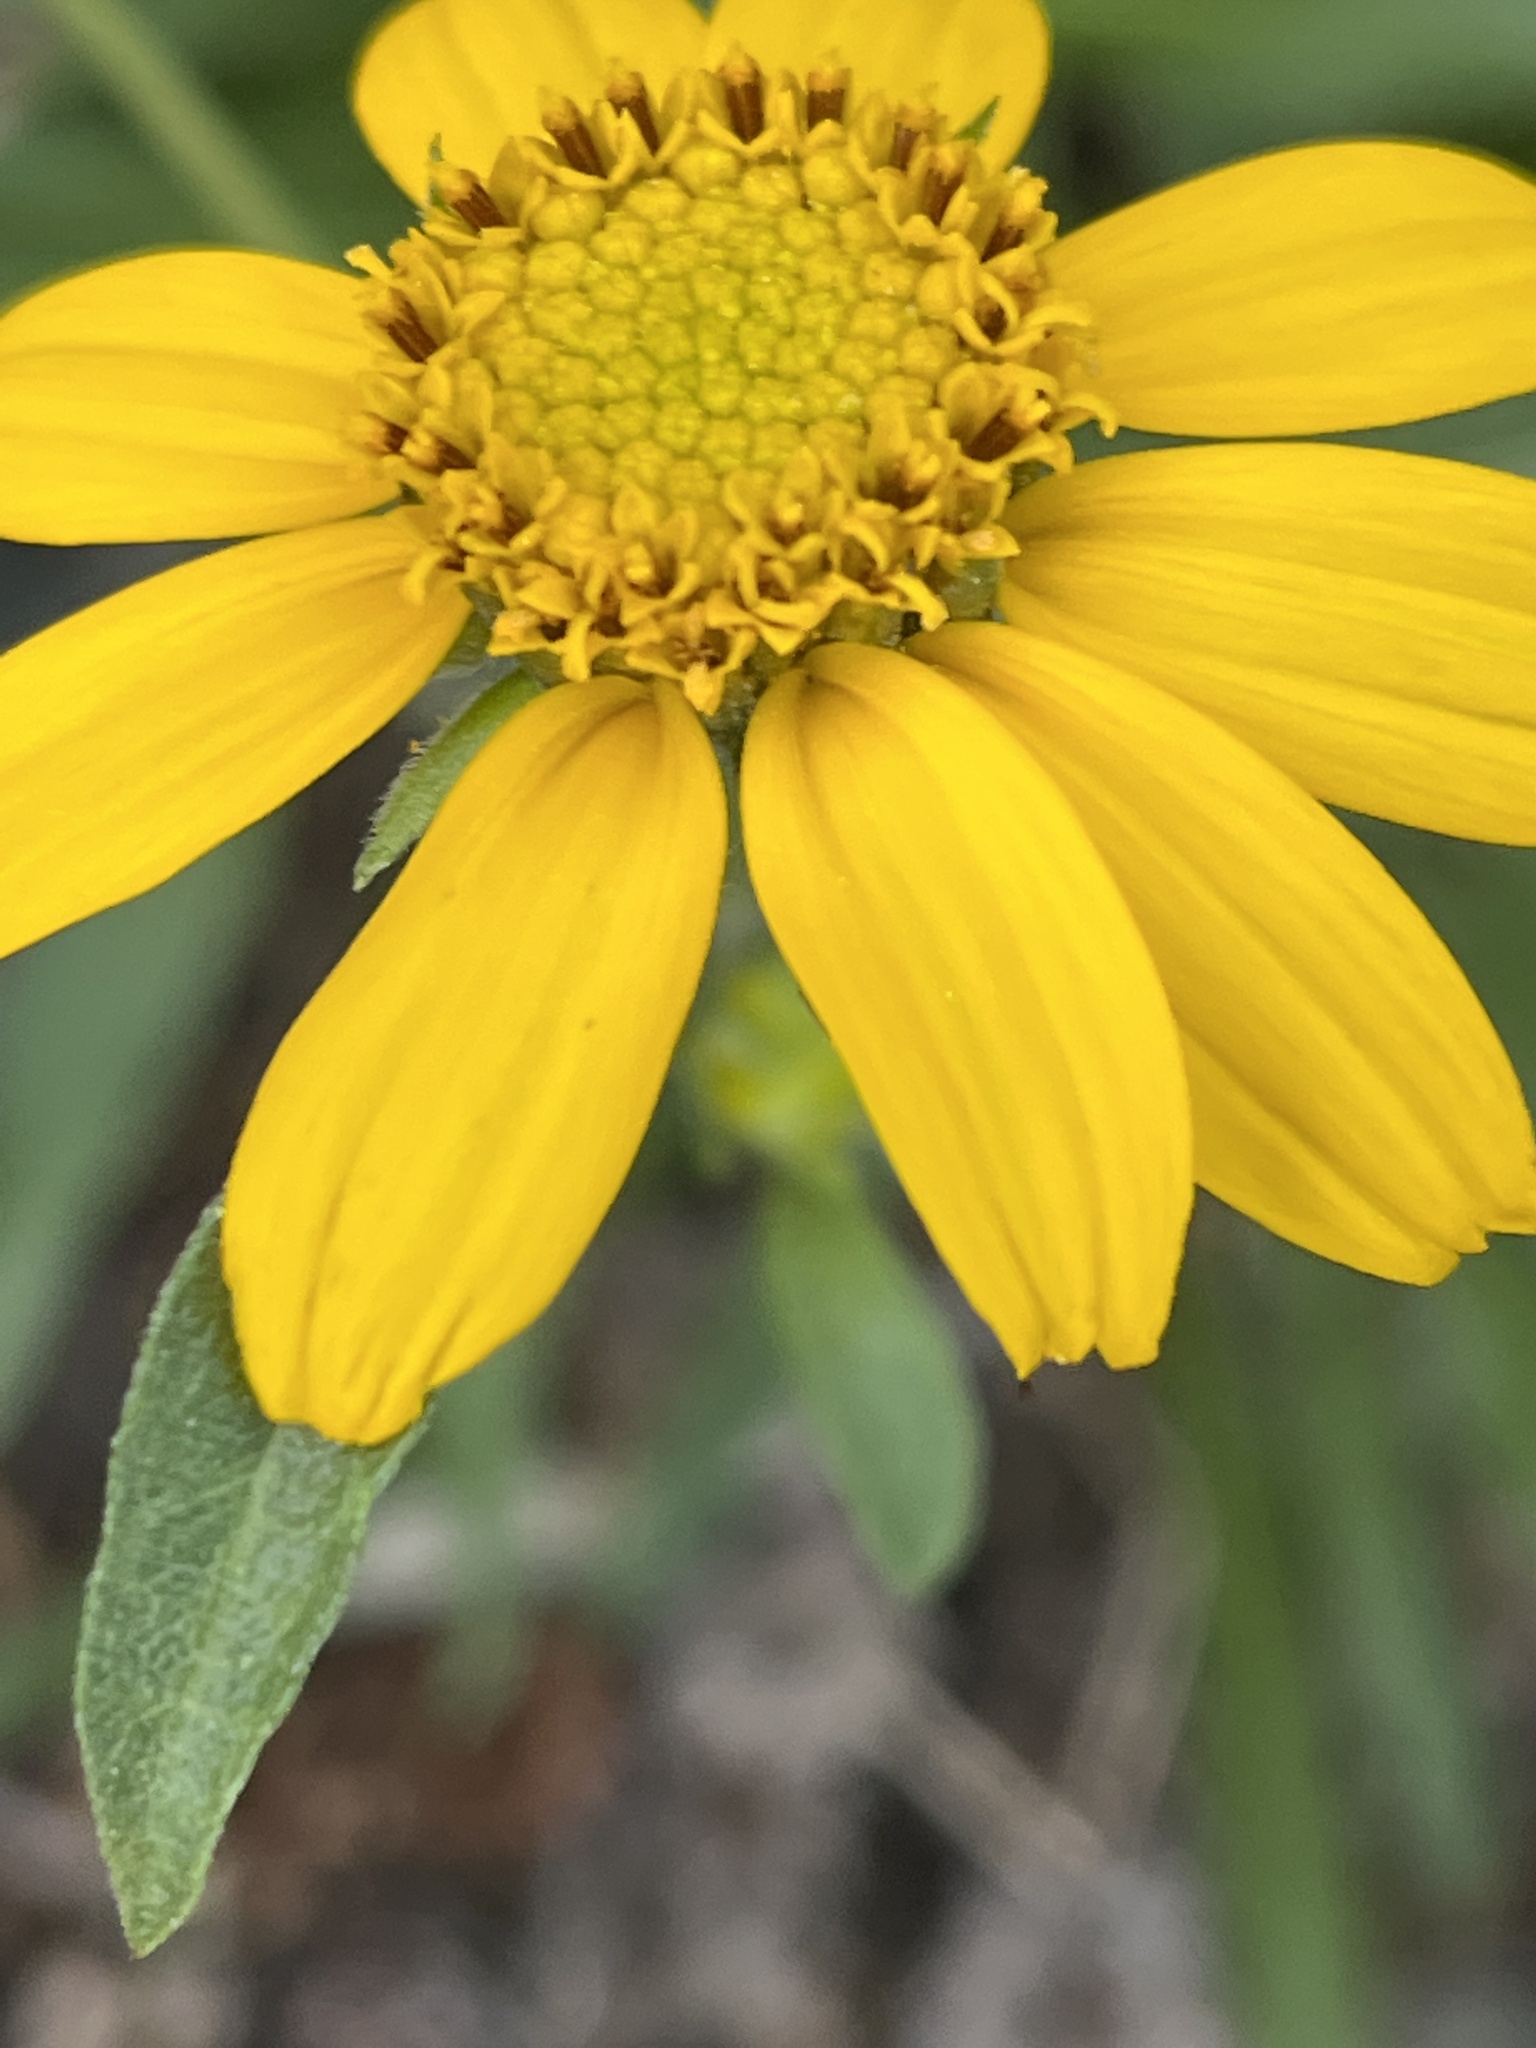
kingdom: Plantae
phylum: Tracheophyta
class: Magnoliopsida
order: Asterales
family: Asteraceae
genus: Helianthella
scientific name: Helianthella californica
